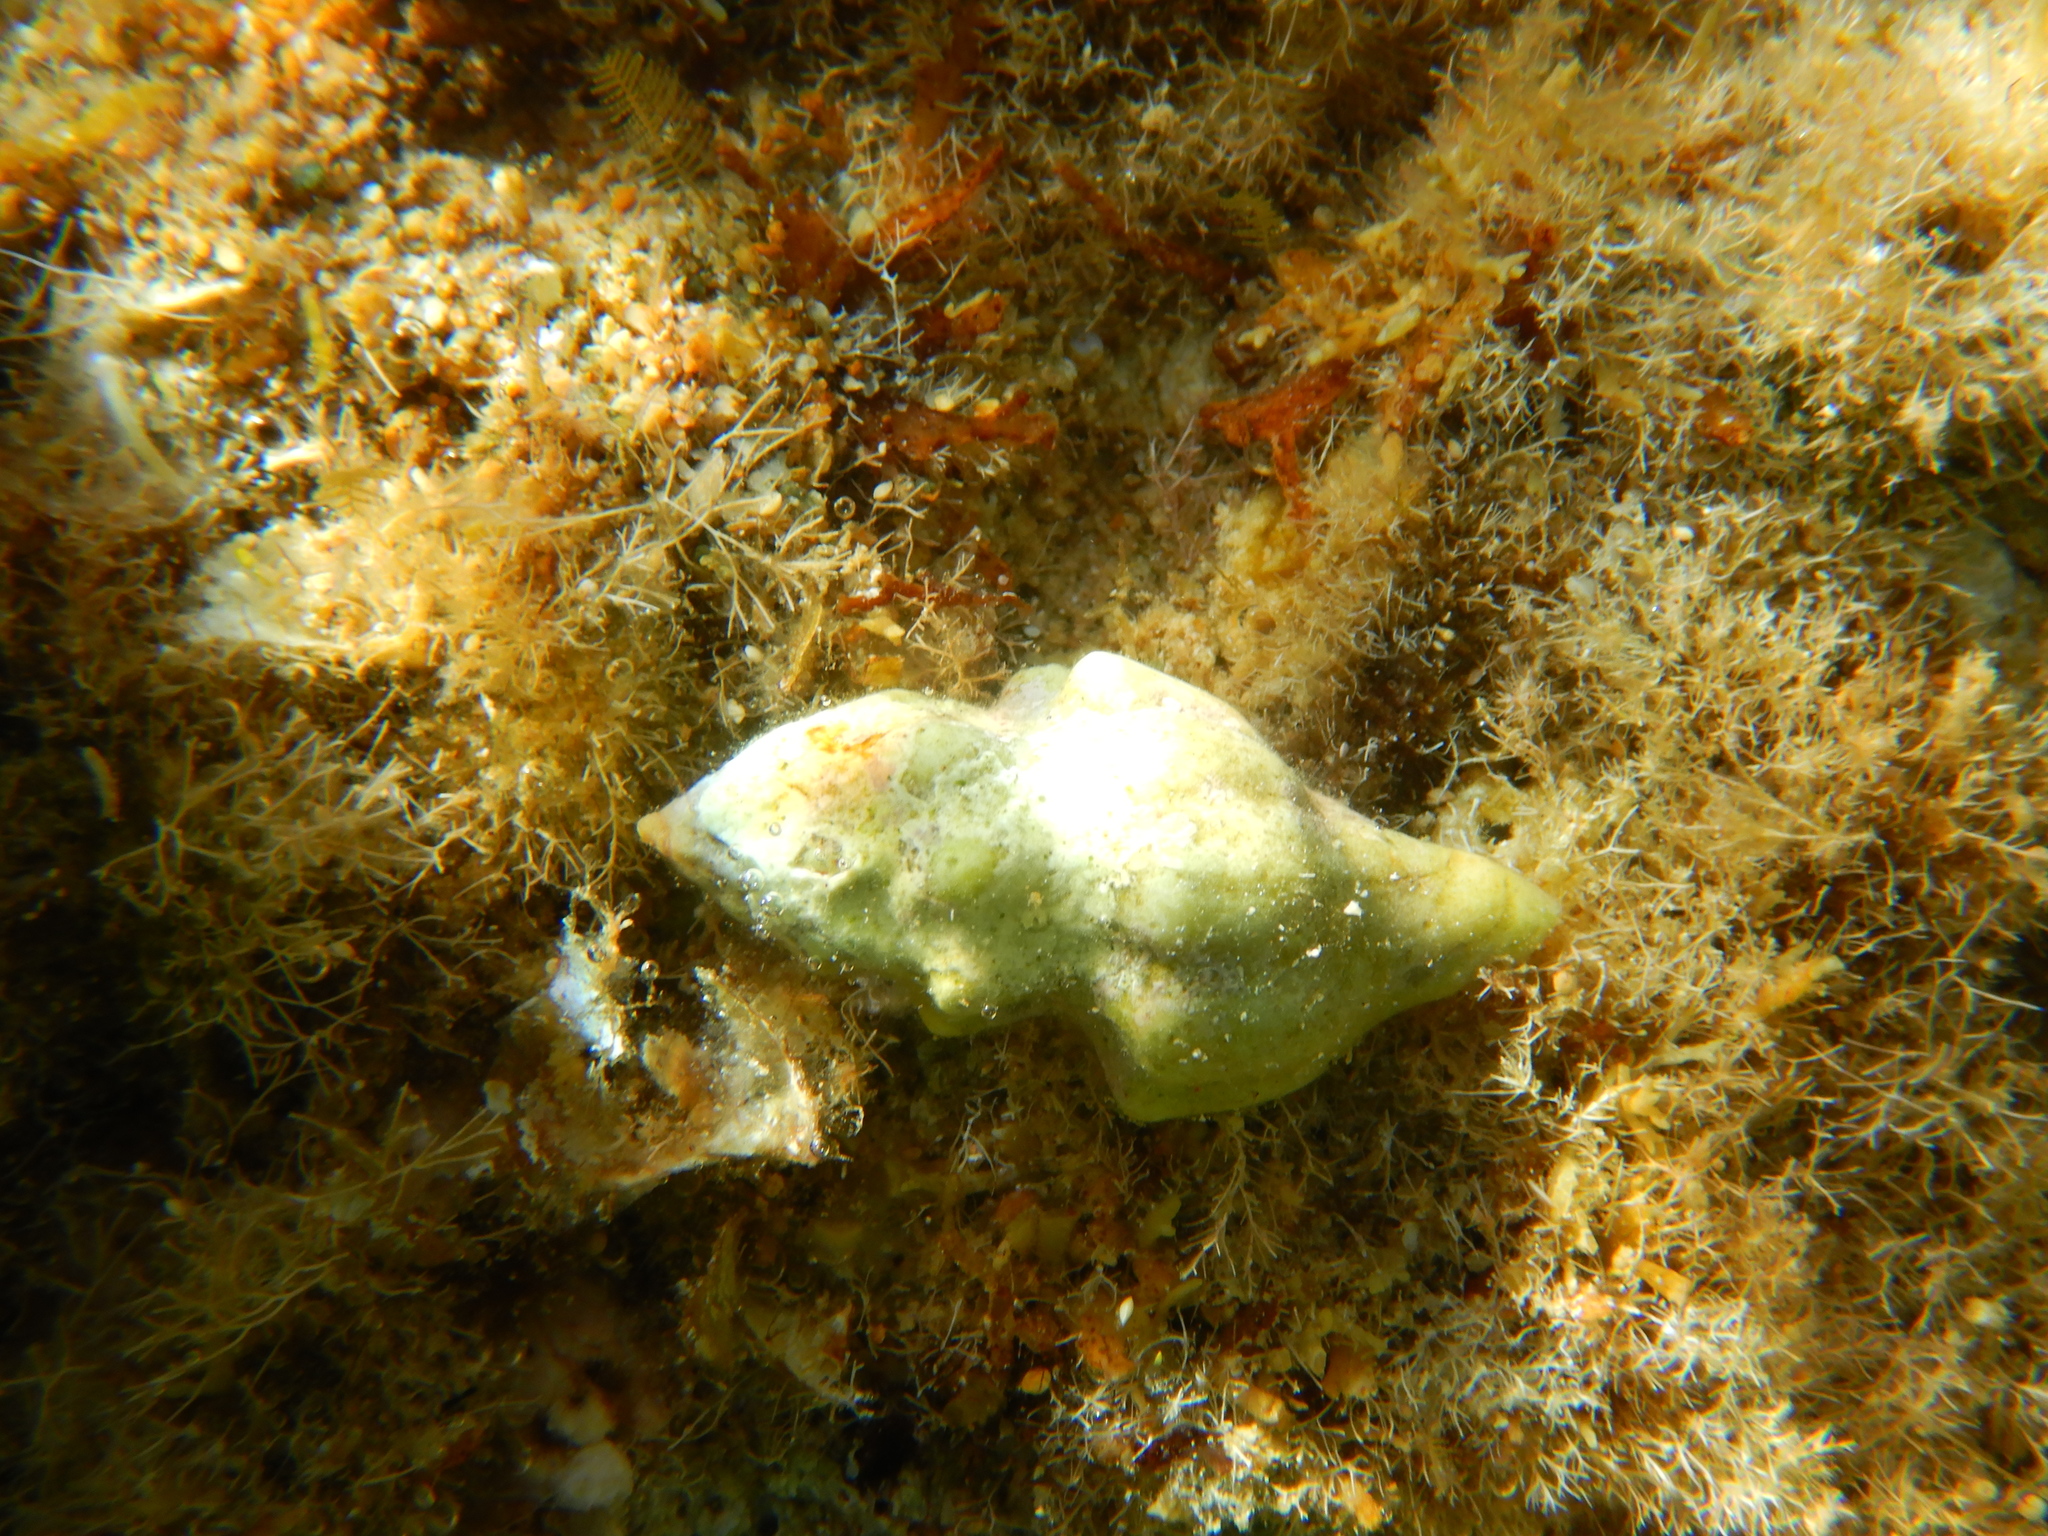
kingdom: Animalia
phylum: Mollusca
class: Gastropoda
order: Neogastropoda
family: Fasciolariidae
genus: Tarantinaea
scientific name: Tarantinaea lignaria
